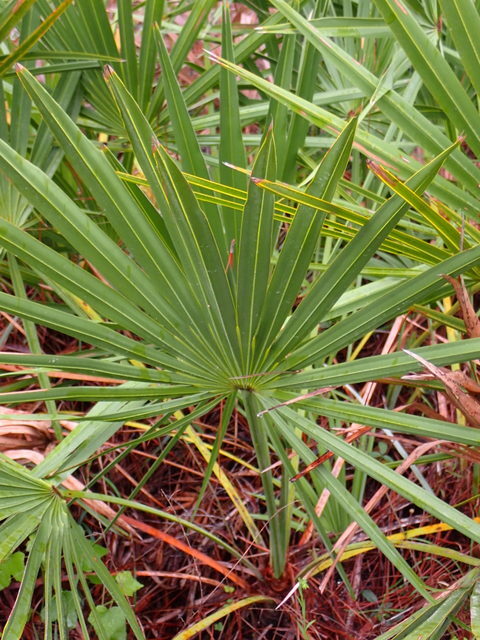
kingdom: Plantae
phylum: Tracheophyta
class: Liliopsida
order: Arecales
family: Arecaceae
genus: Serenoa
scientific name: Serenoa repens
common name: Saw-palmetto
